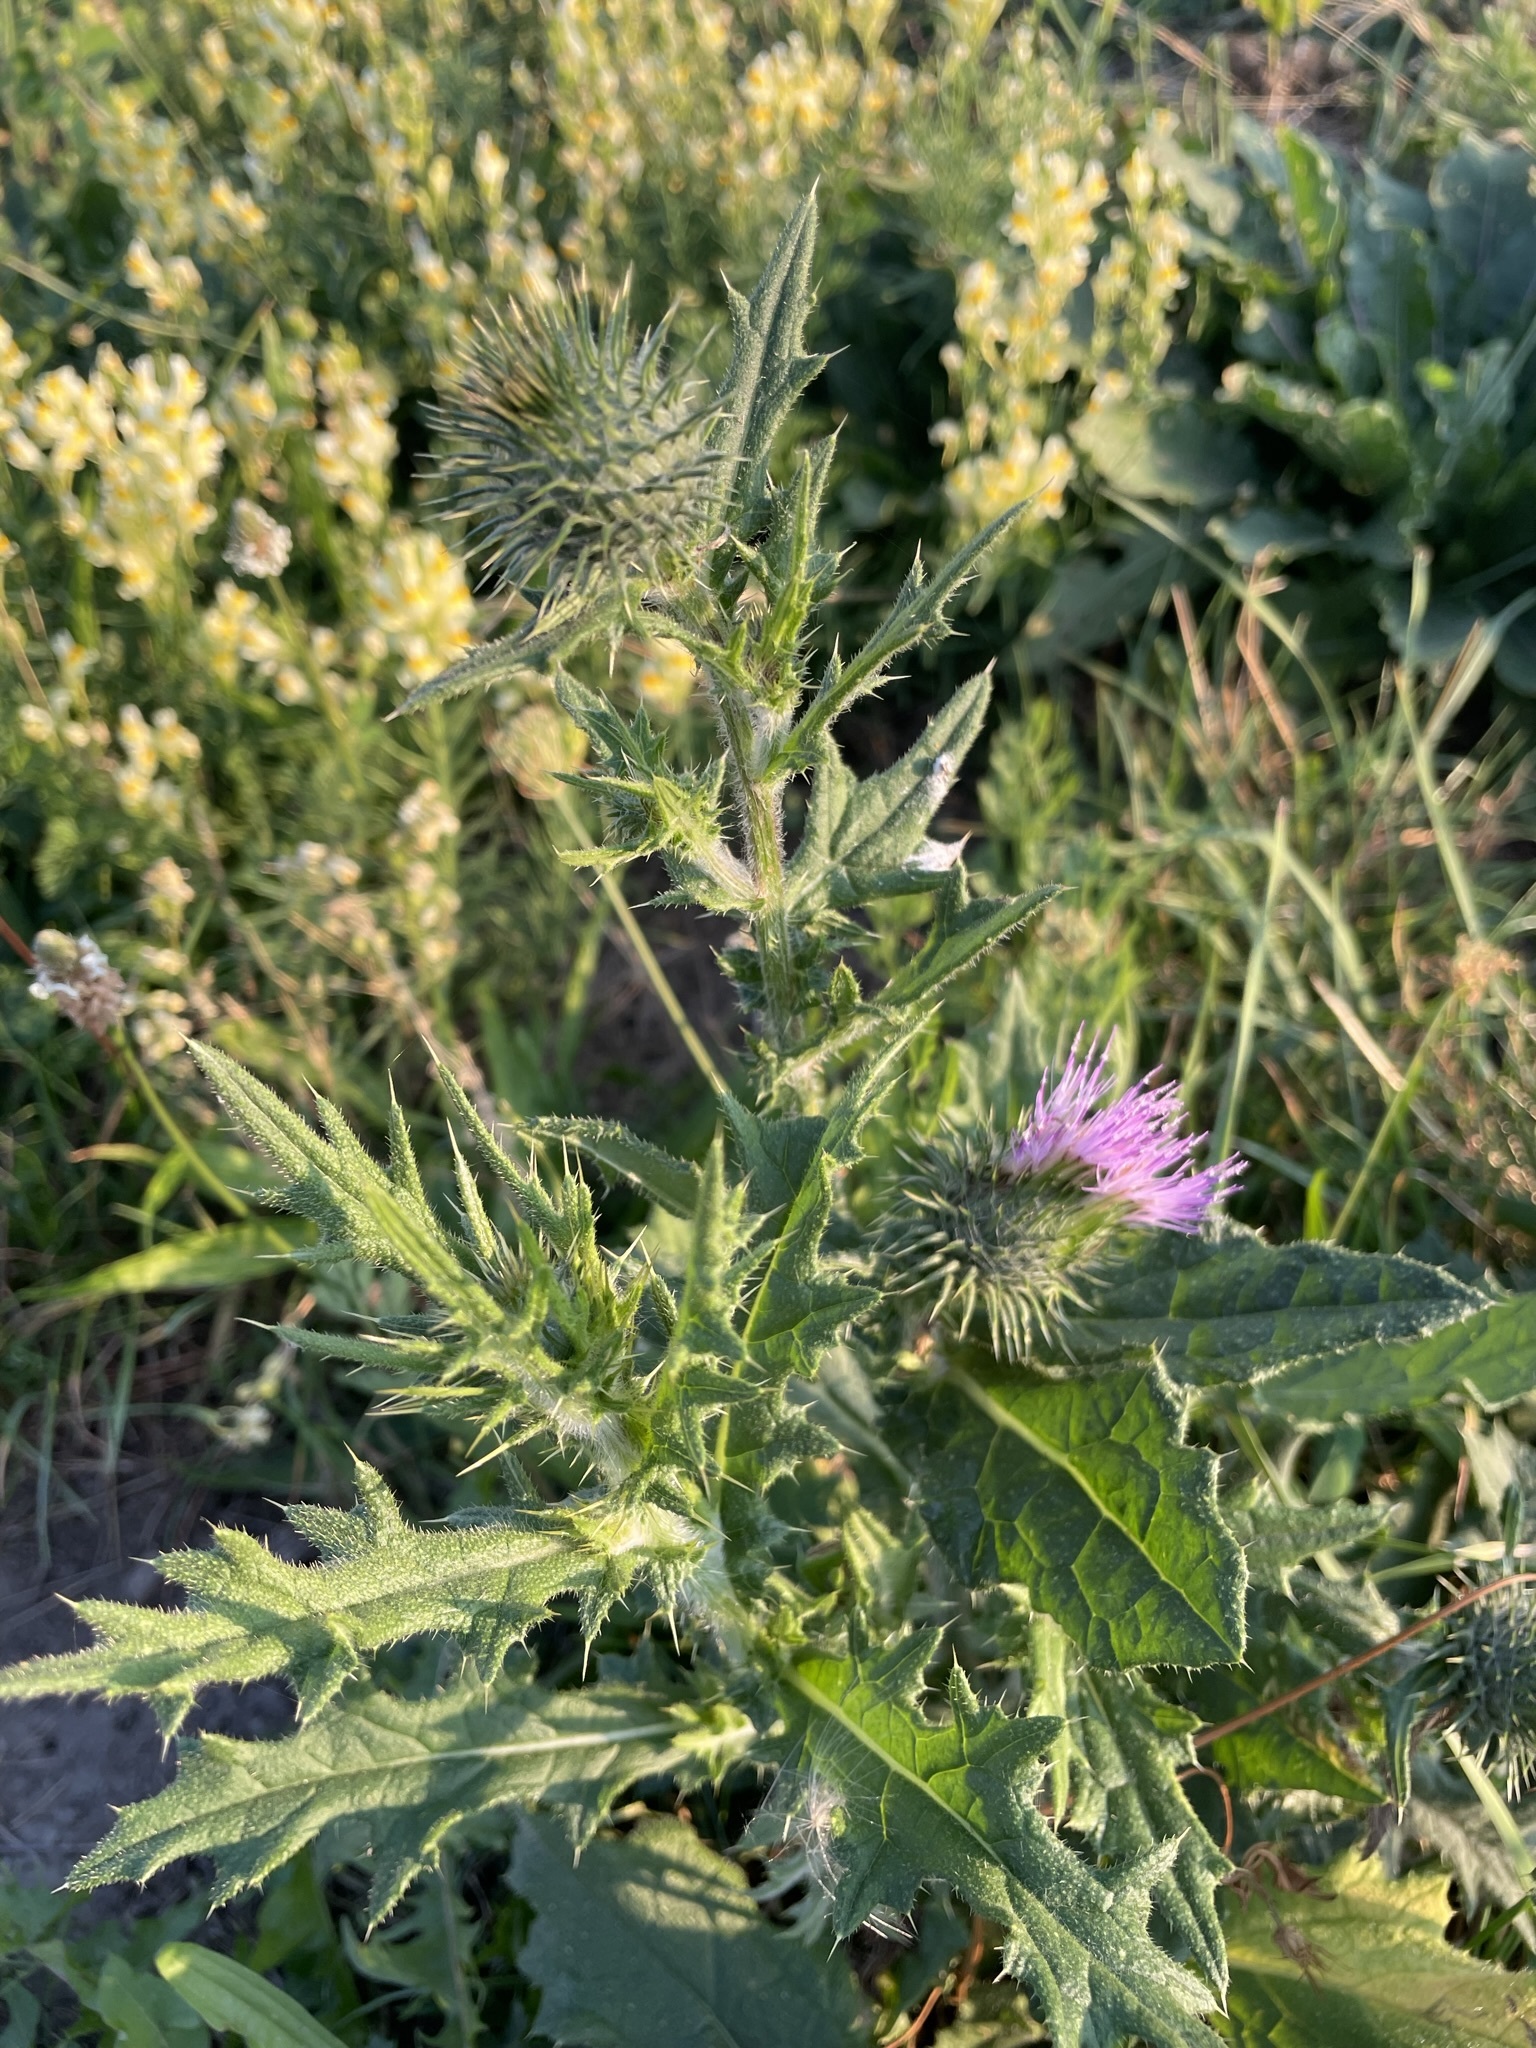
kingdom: Plantae
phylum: Tracheophyta
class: Magnoliopsida
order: Asterales
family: Asteraceae
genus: Cirsium
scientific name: Cirsium vulgare
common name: Bull thistle
